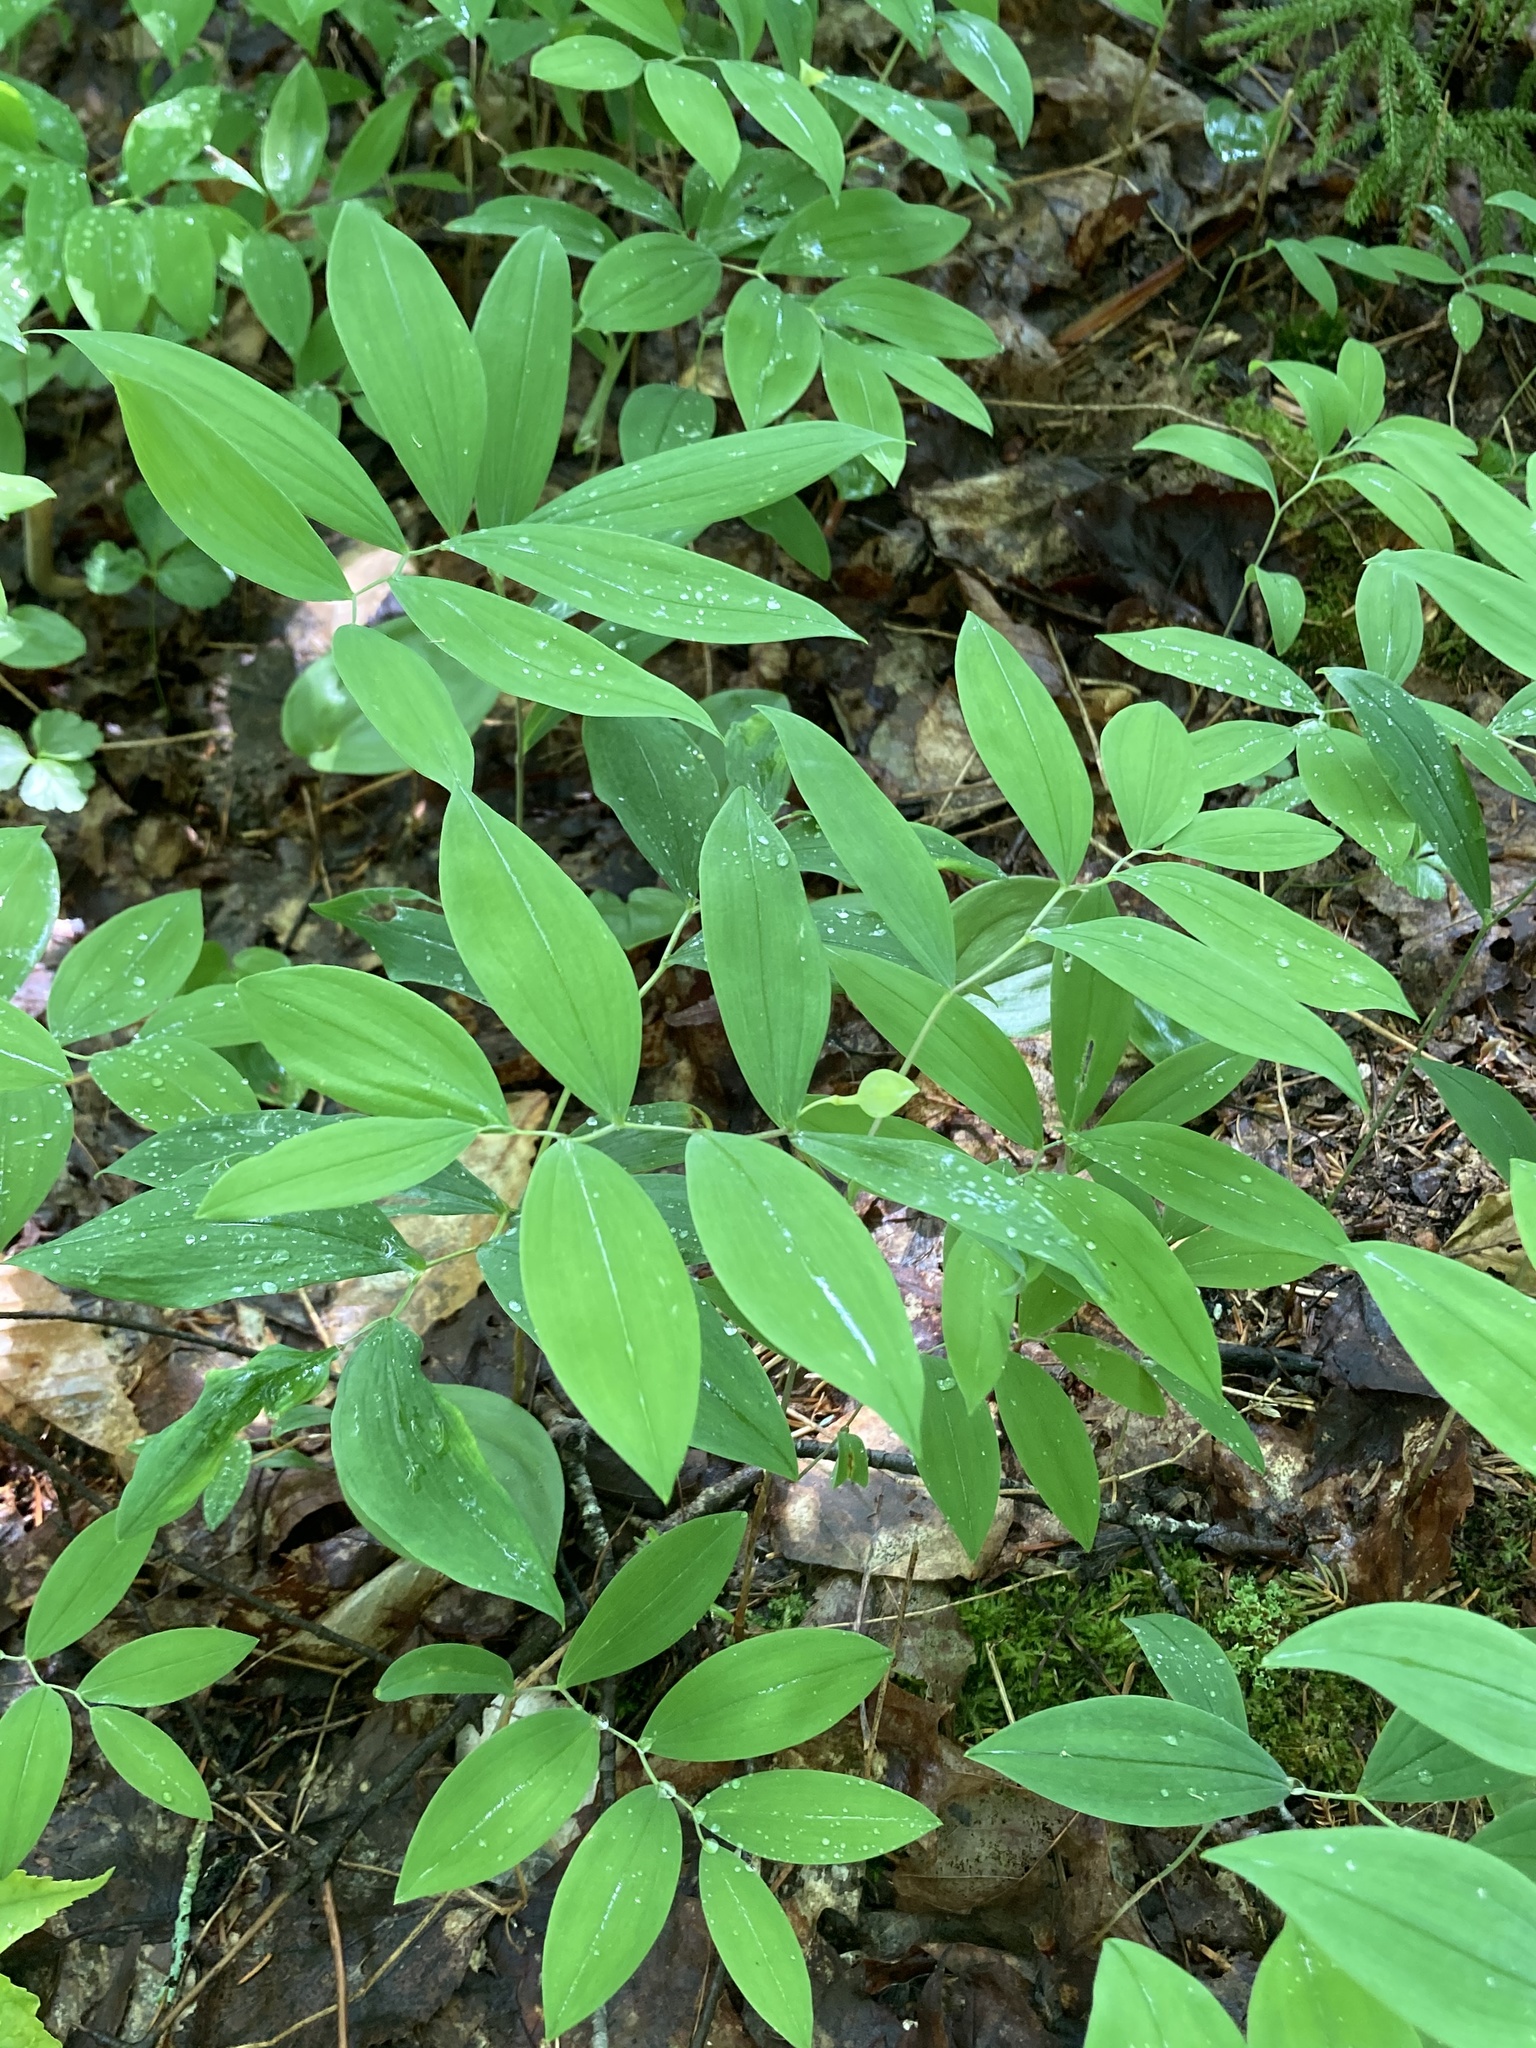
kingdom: Plantae
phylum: Tracheophyta
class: Liliopsida
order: Liliales
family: Colchicaceae
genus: Uvularia
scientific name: Uvularia sessilifolia
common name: Straw-lily
